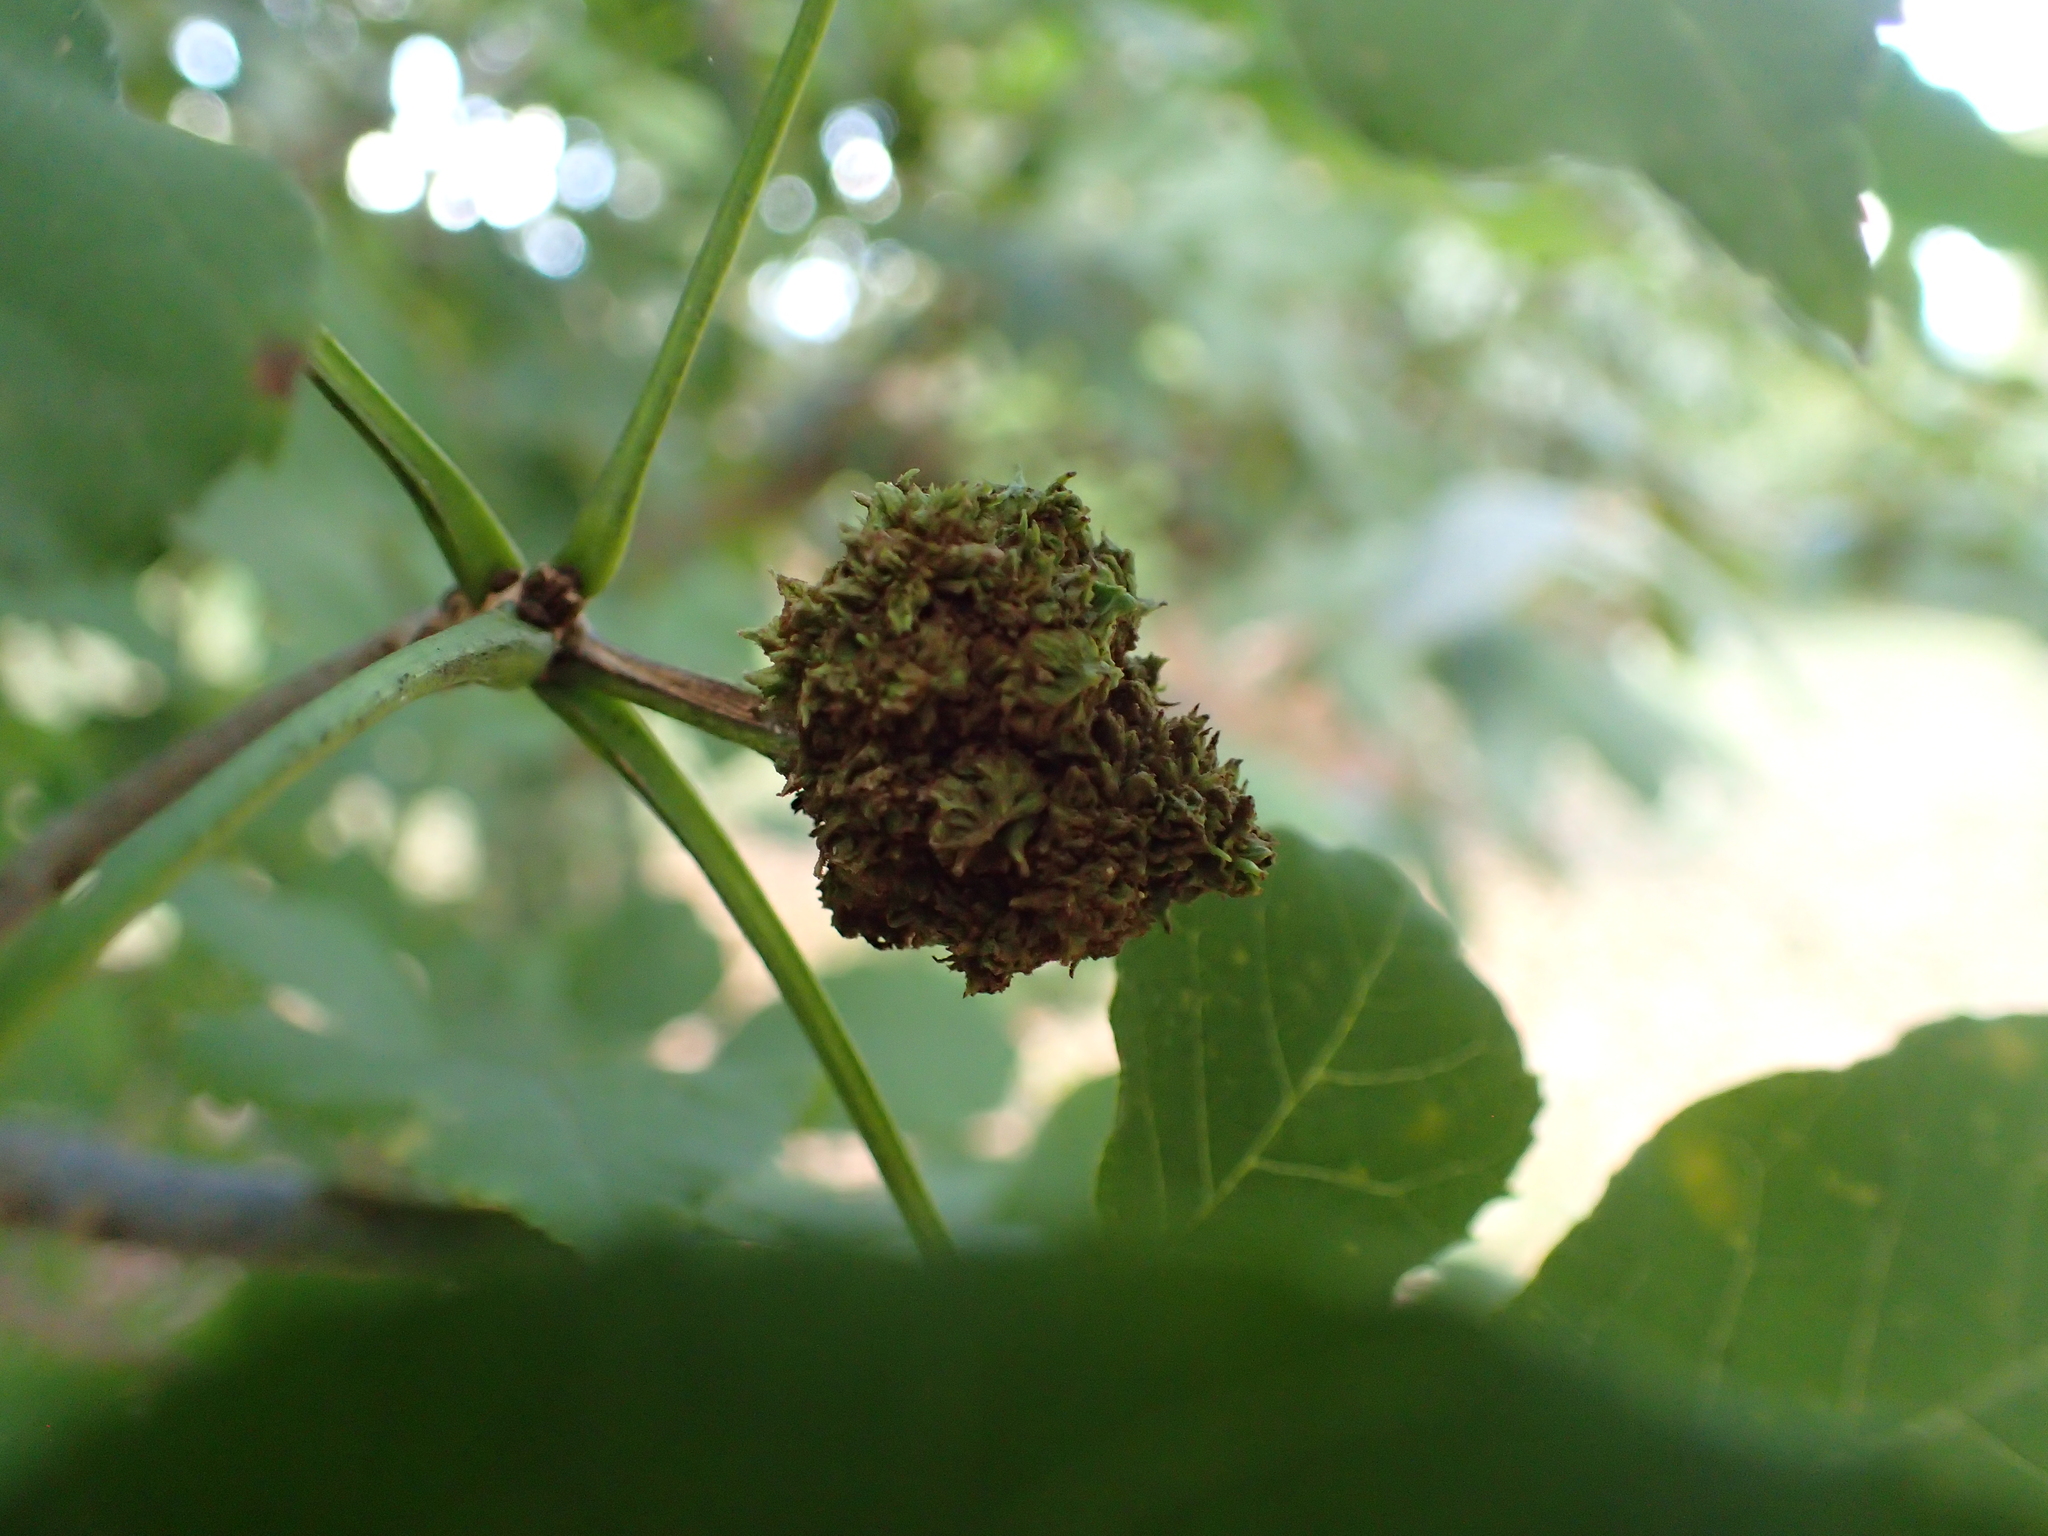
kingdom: Animalia
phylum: Arthropoda
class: Arachnida
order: Trombidiformes
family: Eriophyidae
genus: Aceria
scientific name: Aceria fraxiniflora
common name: Ash flower gall mite
